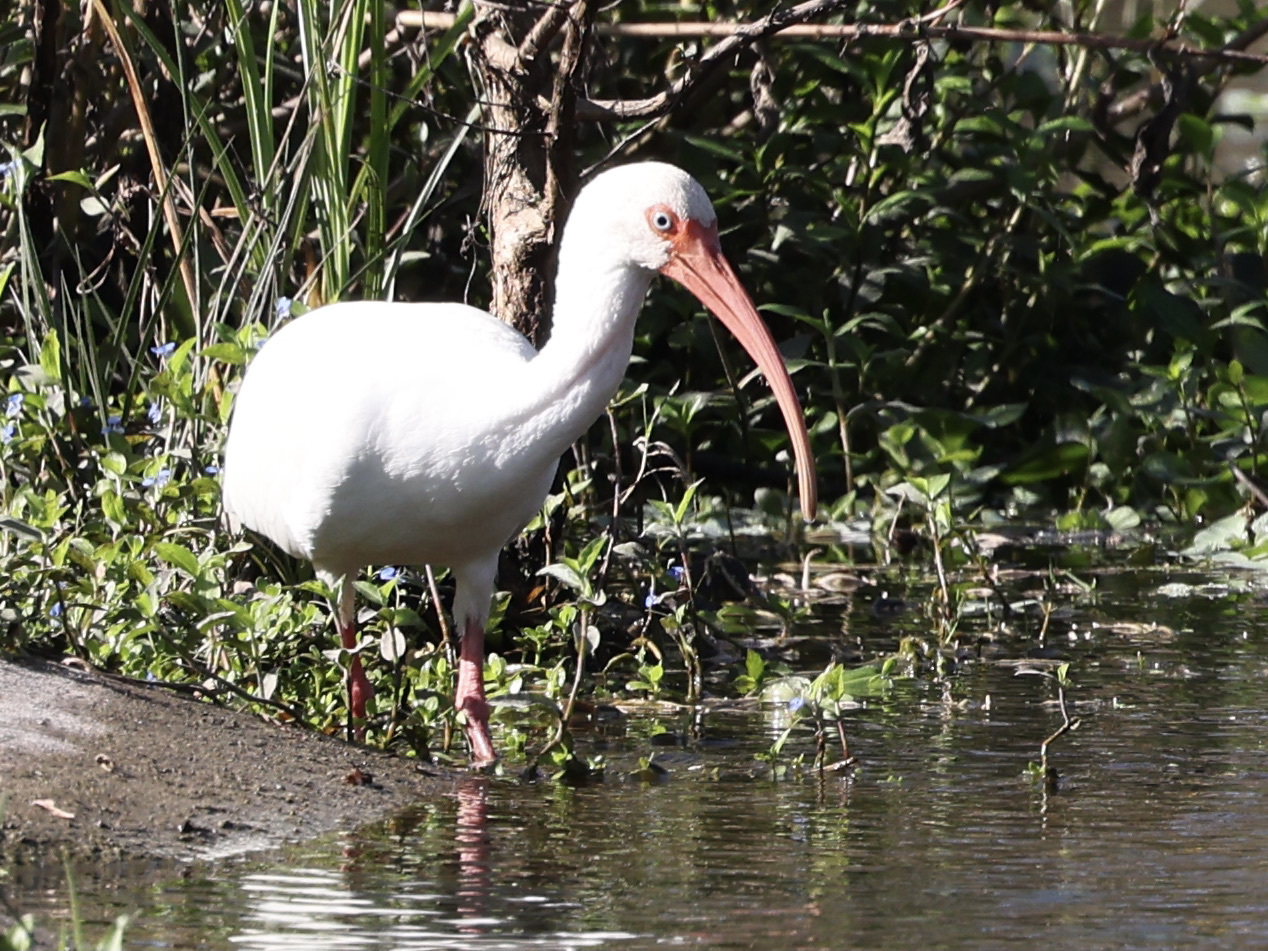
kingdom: Animalia
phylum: Chordata
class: Aves
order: Pelecaniformes
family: Threskiornithidae
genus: Eudocimus
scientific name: Eudocimus albus
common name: White ibis
